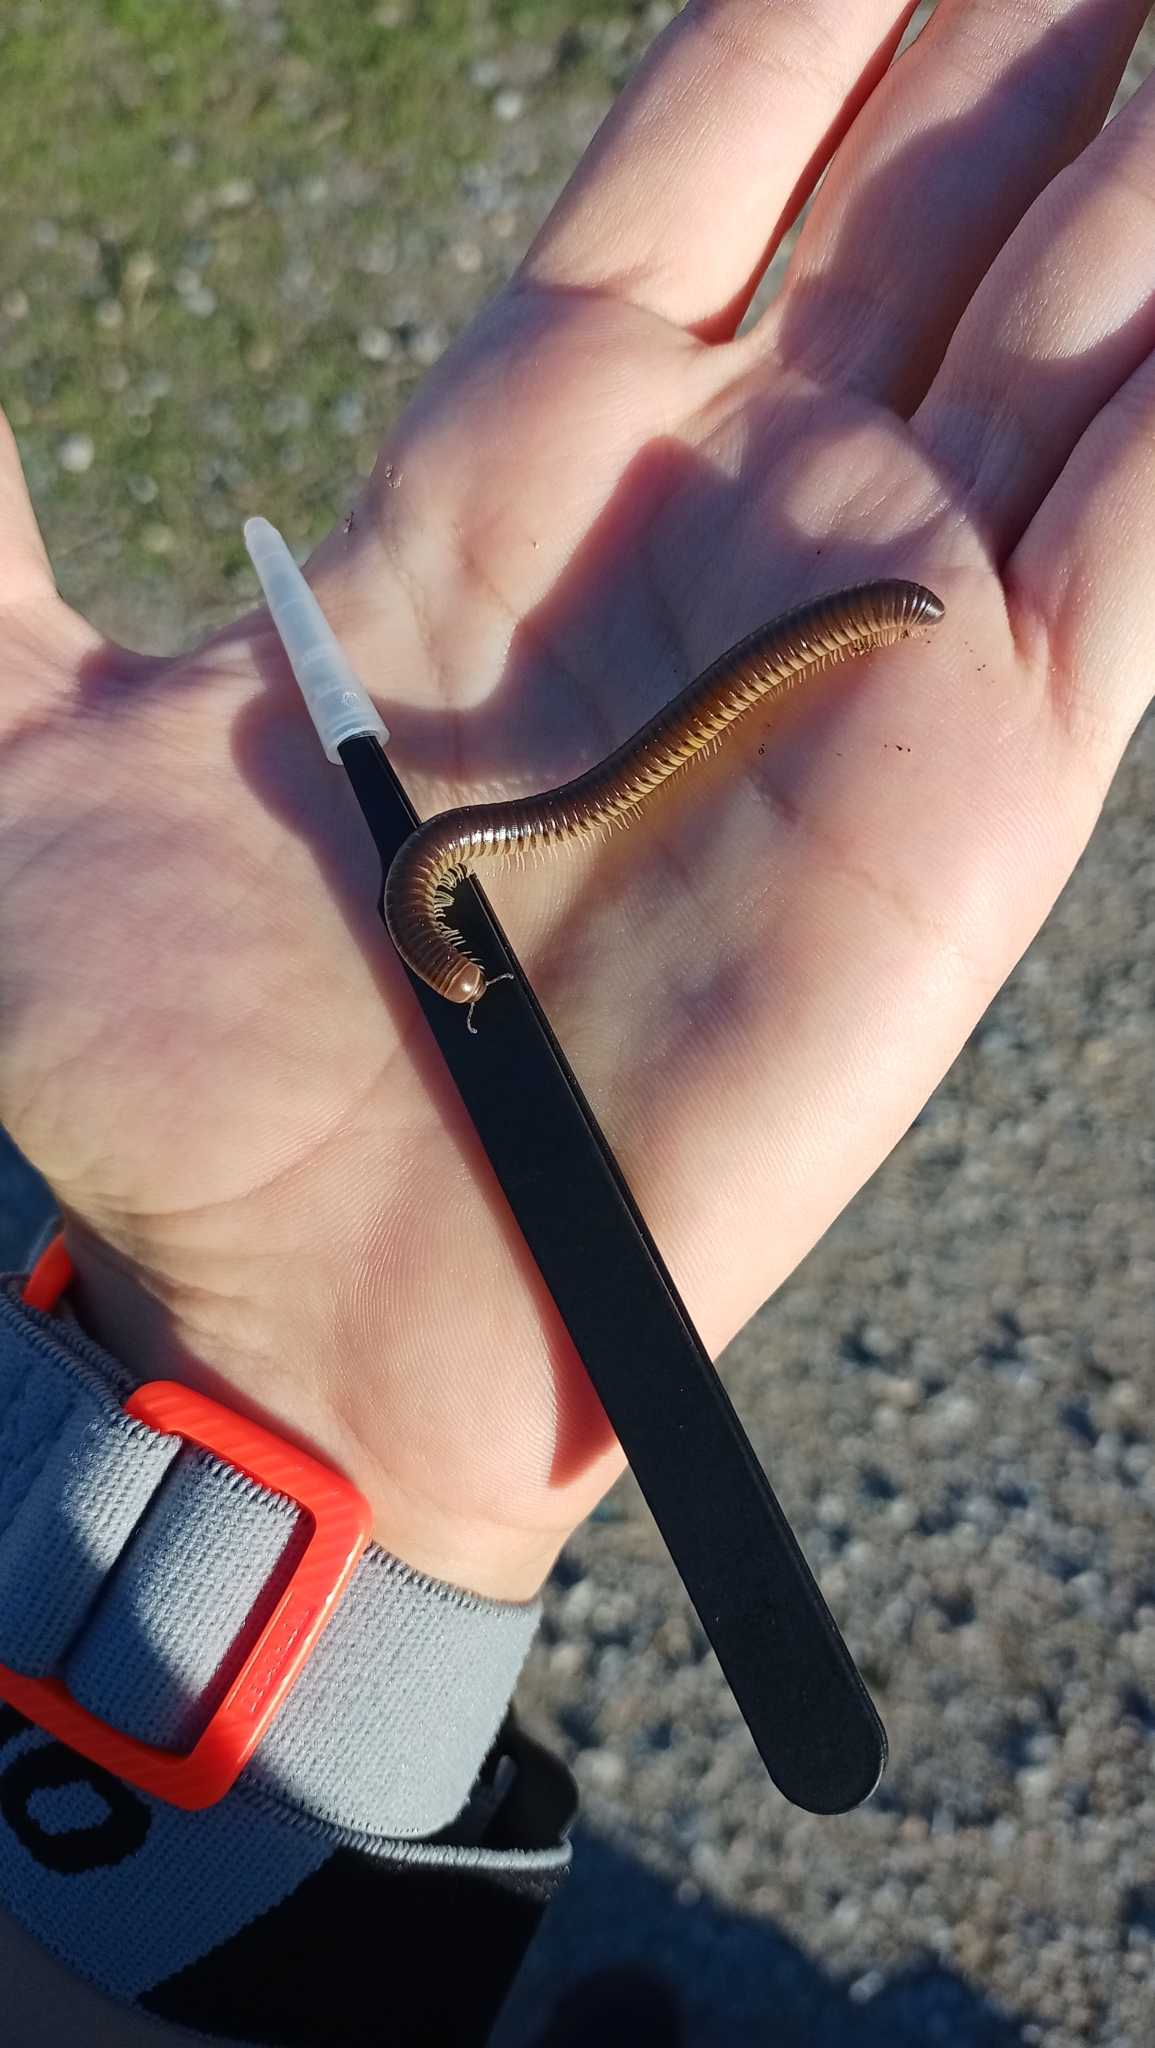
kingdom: Animalia
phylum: Arthropoda
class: Diplopoda
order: Julida
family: Julidae
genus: Pachyiulus
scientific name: Pachyiulus flavipes
